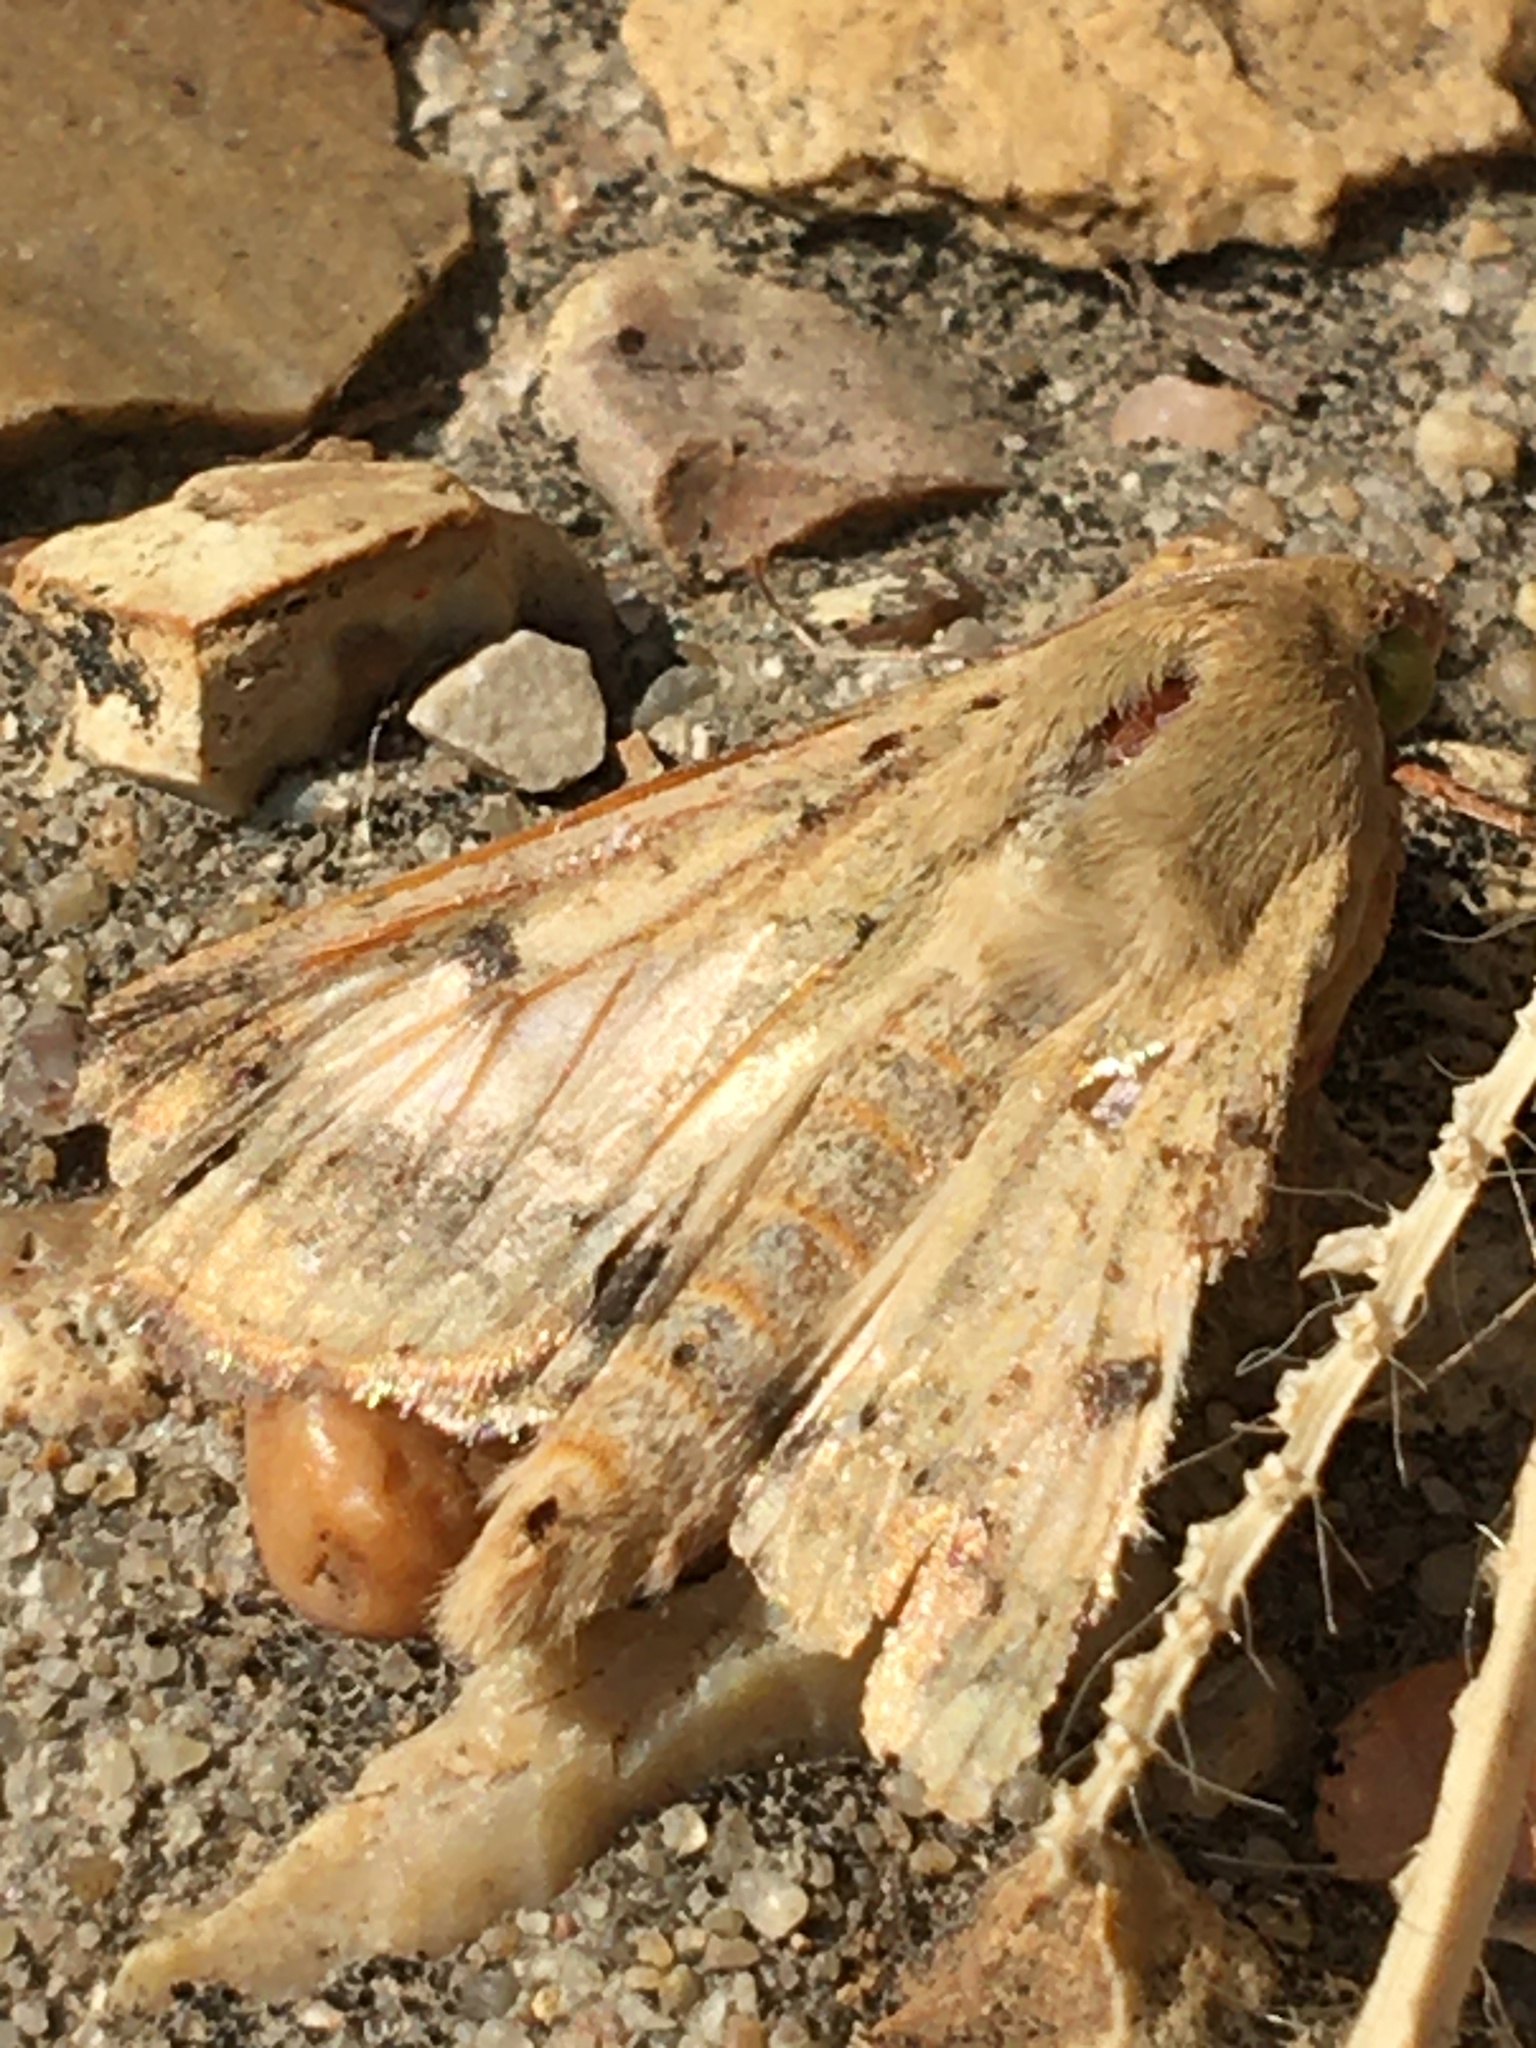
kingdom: Animalia
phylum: Arthropoda
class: Insecta
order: Lepidoptera
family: Noctuidae
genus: Helicoverpa
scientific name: Helicoverpa zea
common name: Bollworm
